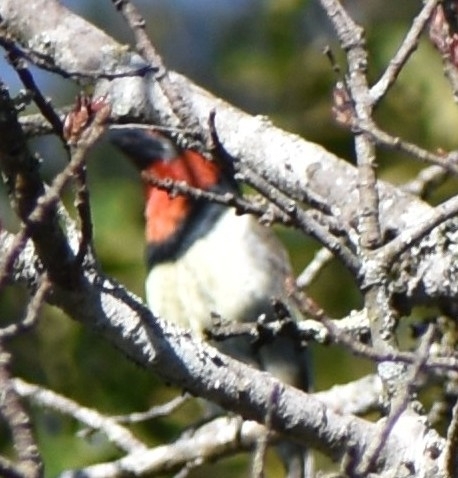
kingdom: Animalia
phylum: Chordata
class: Aves
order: Piciformes
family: Lybiidae
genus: Lybius
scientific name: Lybius torquatus
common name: Black-collared barbet
